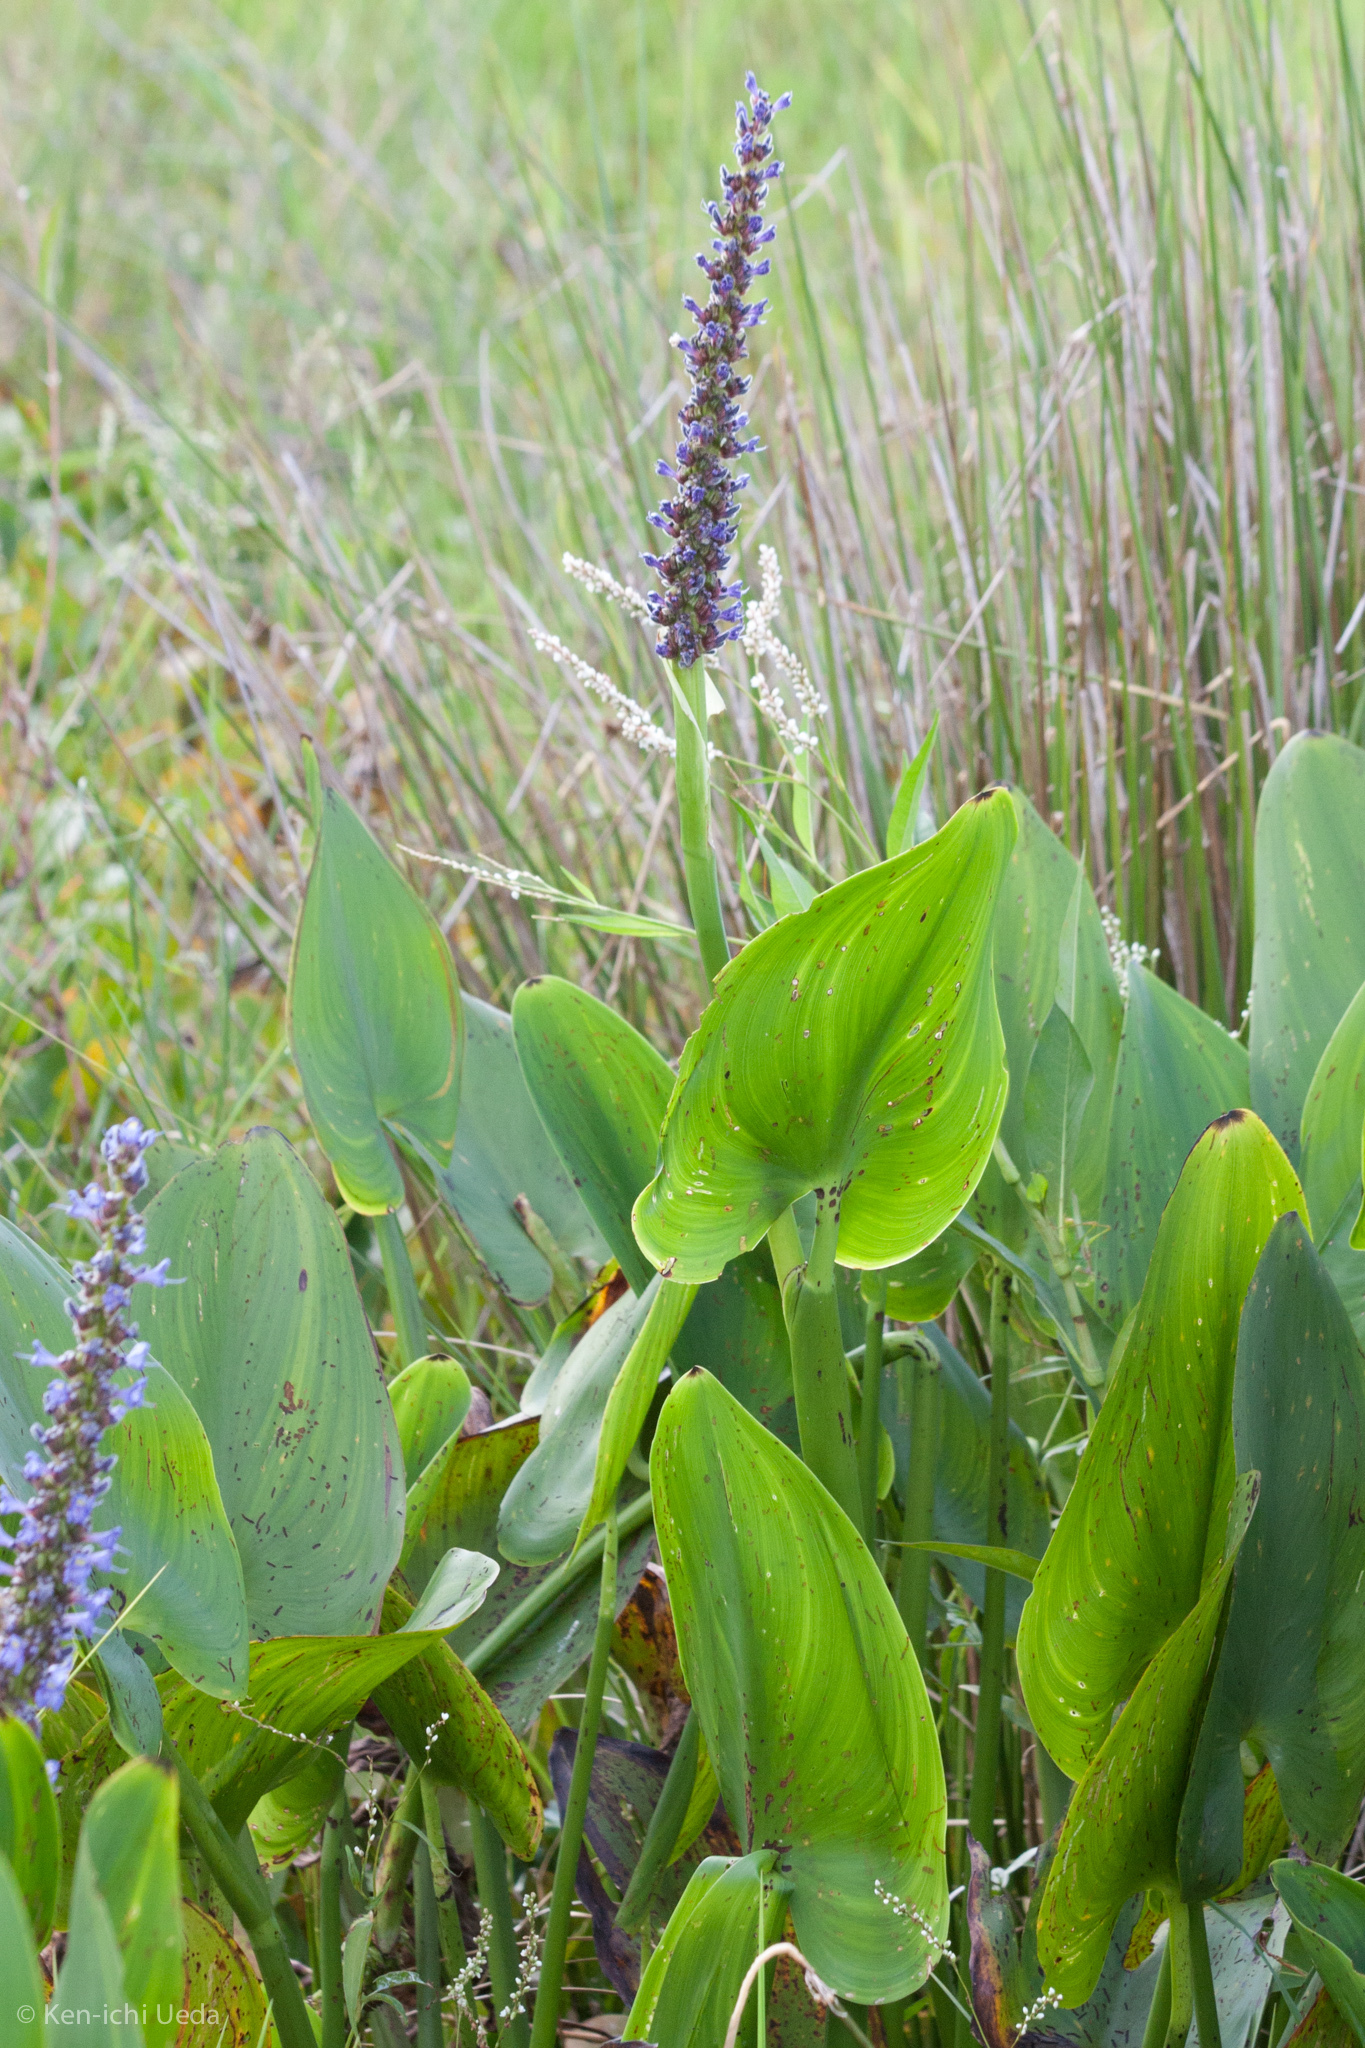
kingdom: Plantae
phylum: Tracheophyta
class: Liliopsida
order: Commelinales
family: Pontederiaceae
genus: Pontederia
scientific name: Pontederia cordata
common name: Pickerelweed
